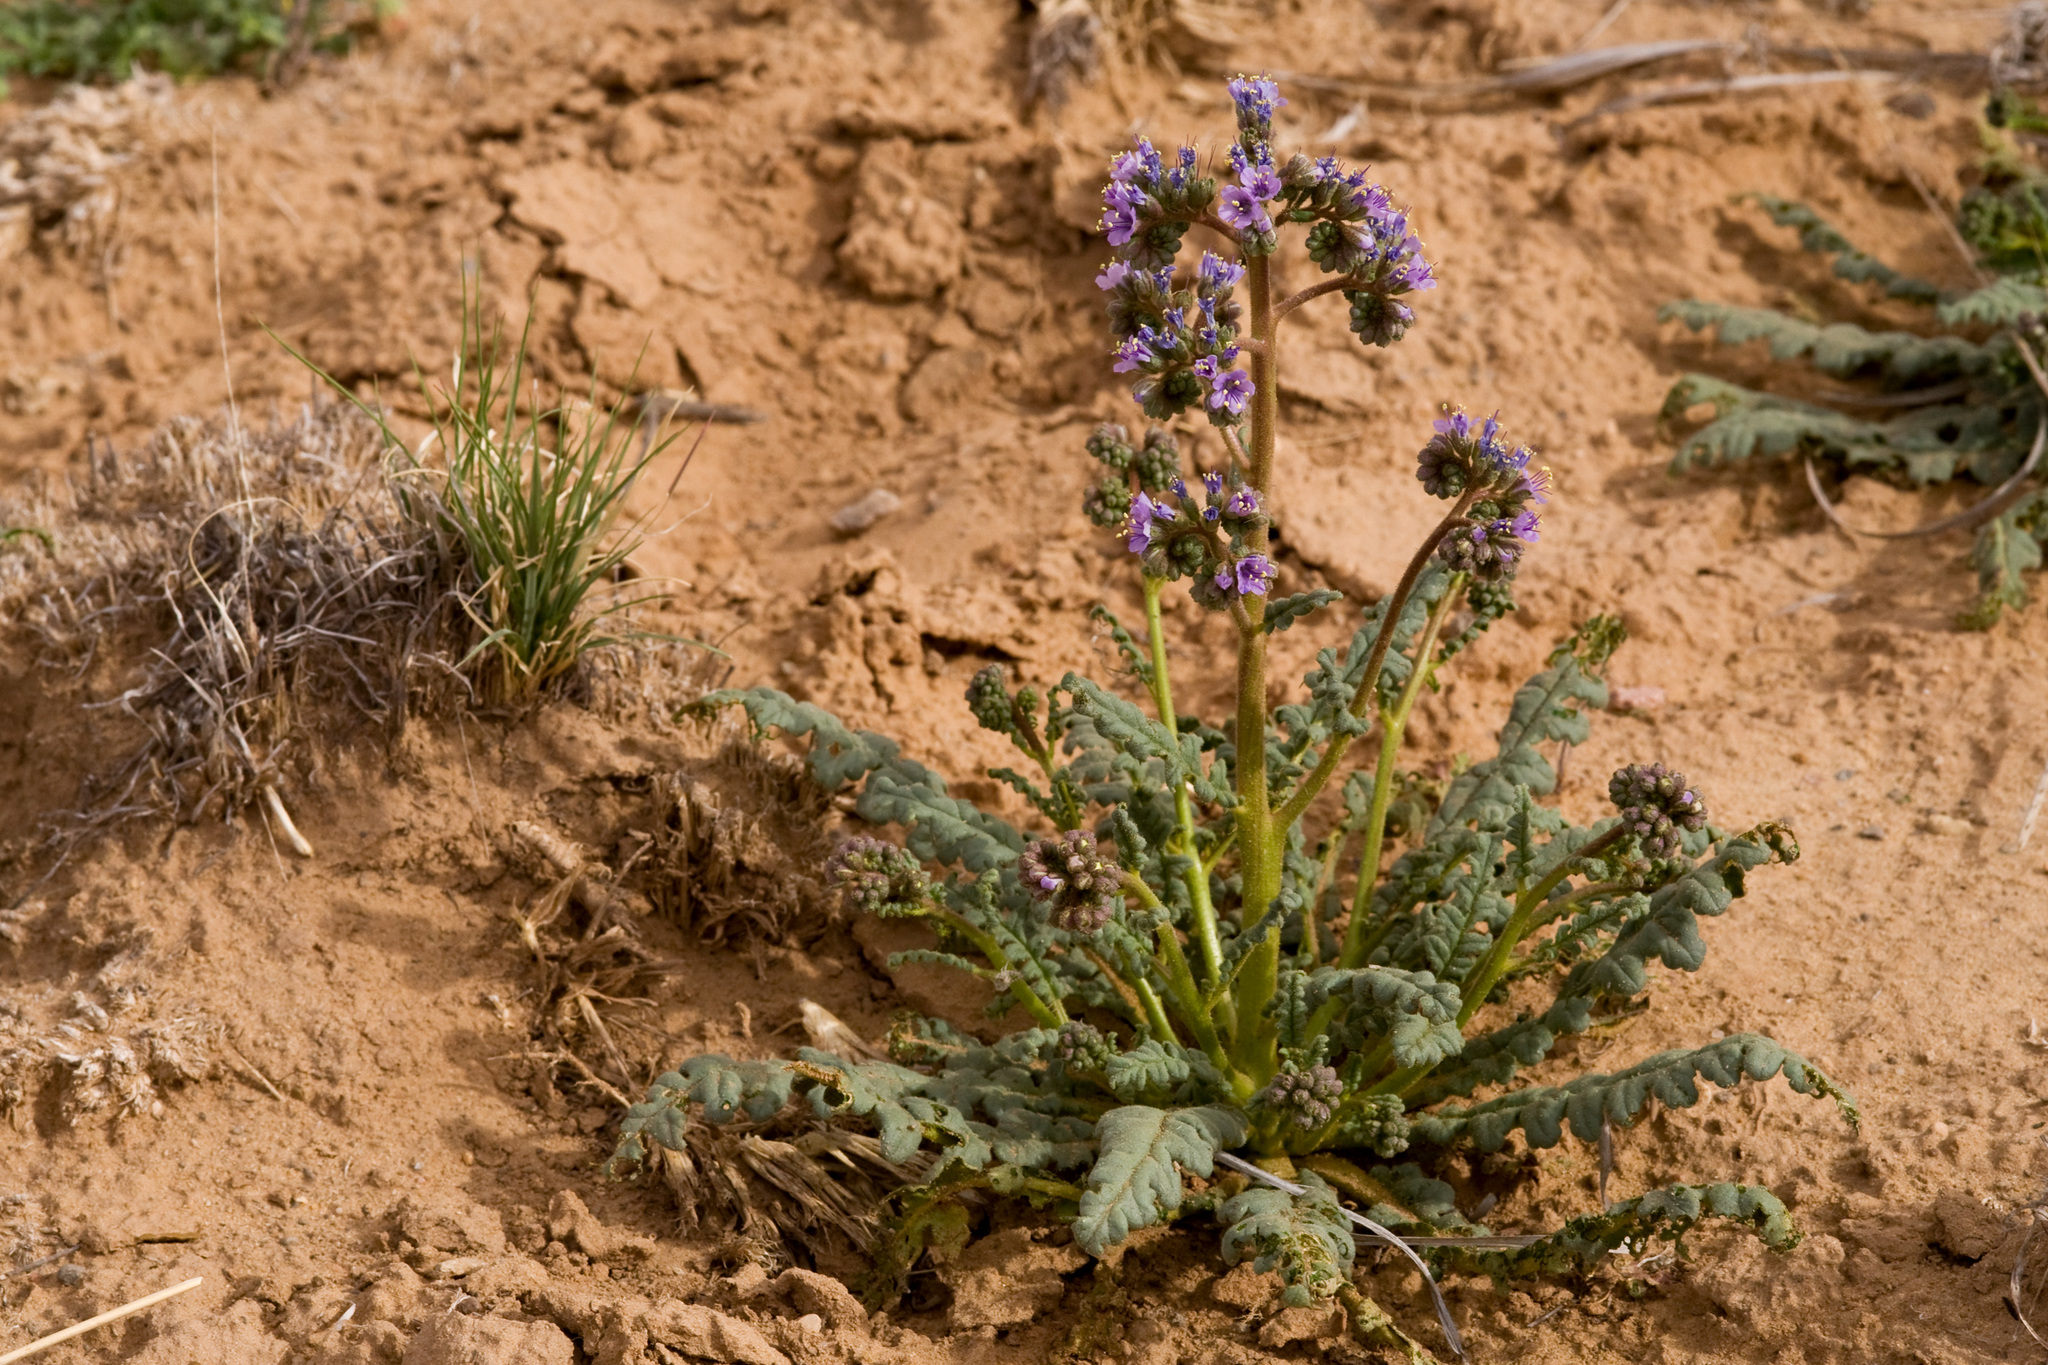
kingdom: Plantae
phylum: Tracheophyta
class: Magnoliopsida
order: Boraginales
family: Hydrophyllaceae
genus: Phacelia
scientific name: Phacelia crenulata
